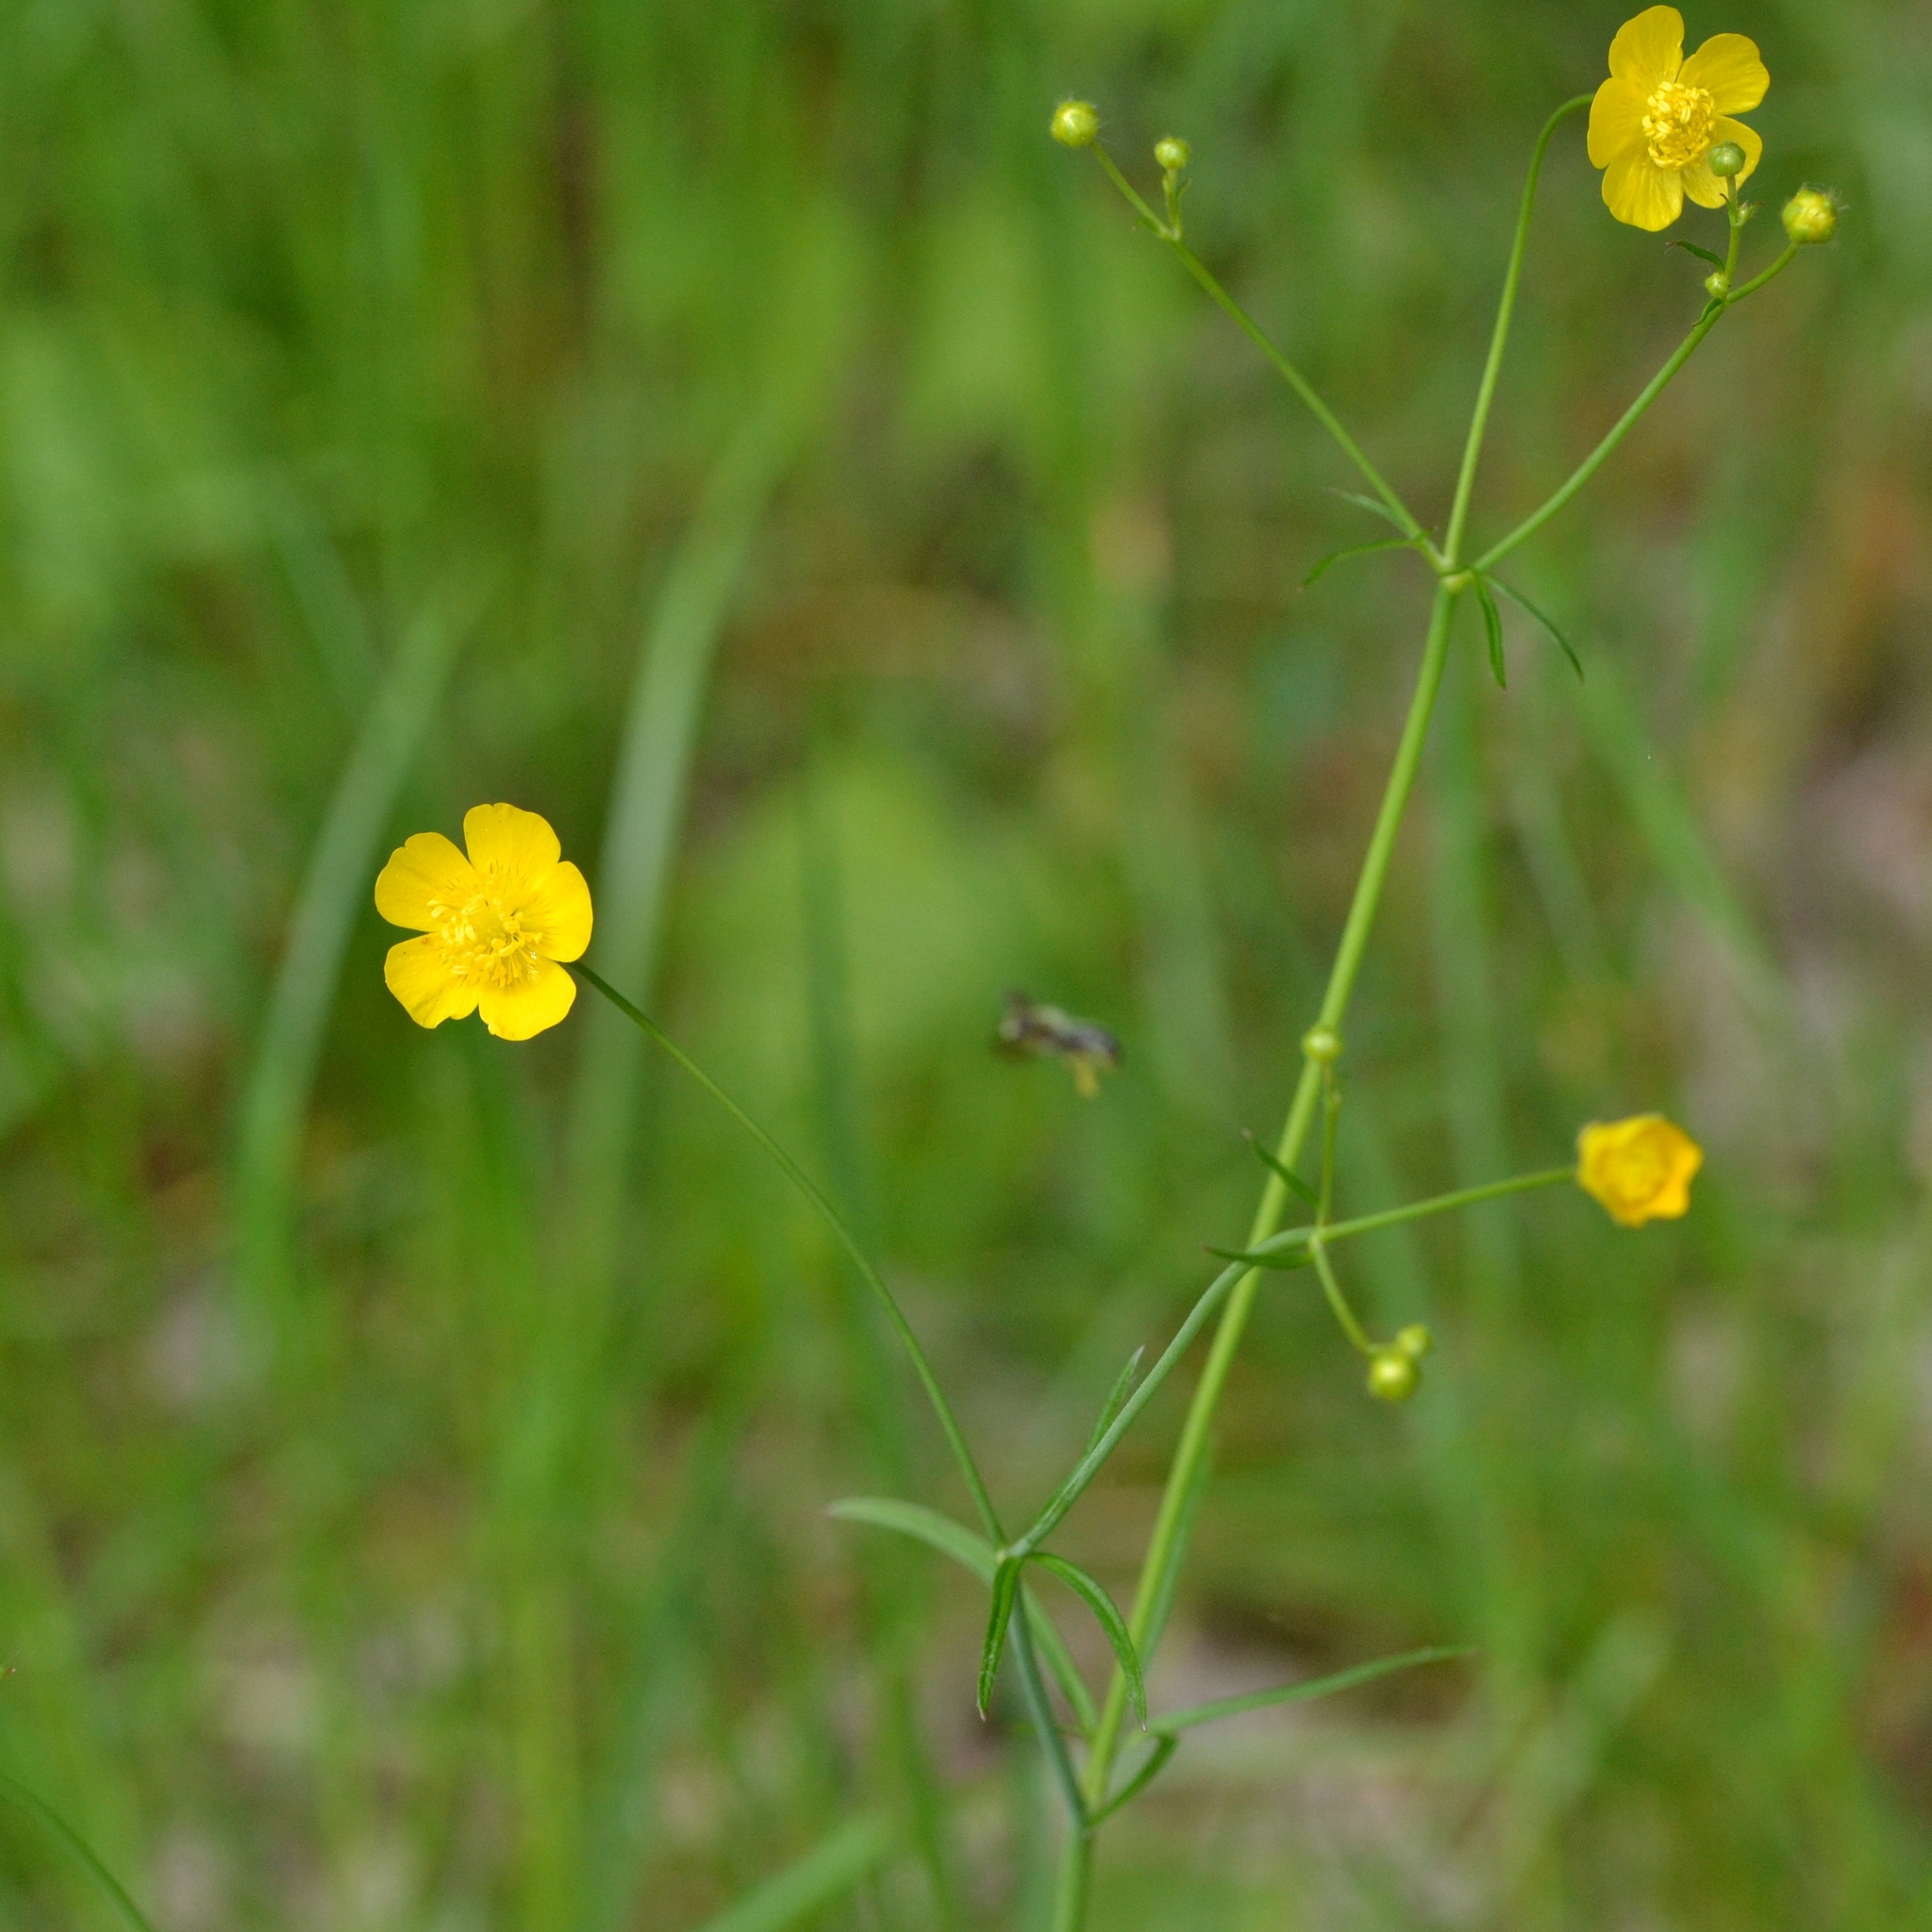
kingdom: Plantae
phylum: Tracheophyta
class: Magnoliopsida
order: Ranunculales
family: Ranunculaceae
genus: Ranunculus
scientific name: Ranunculus acris
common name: Meadow buttercup
